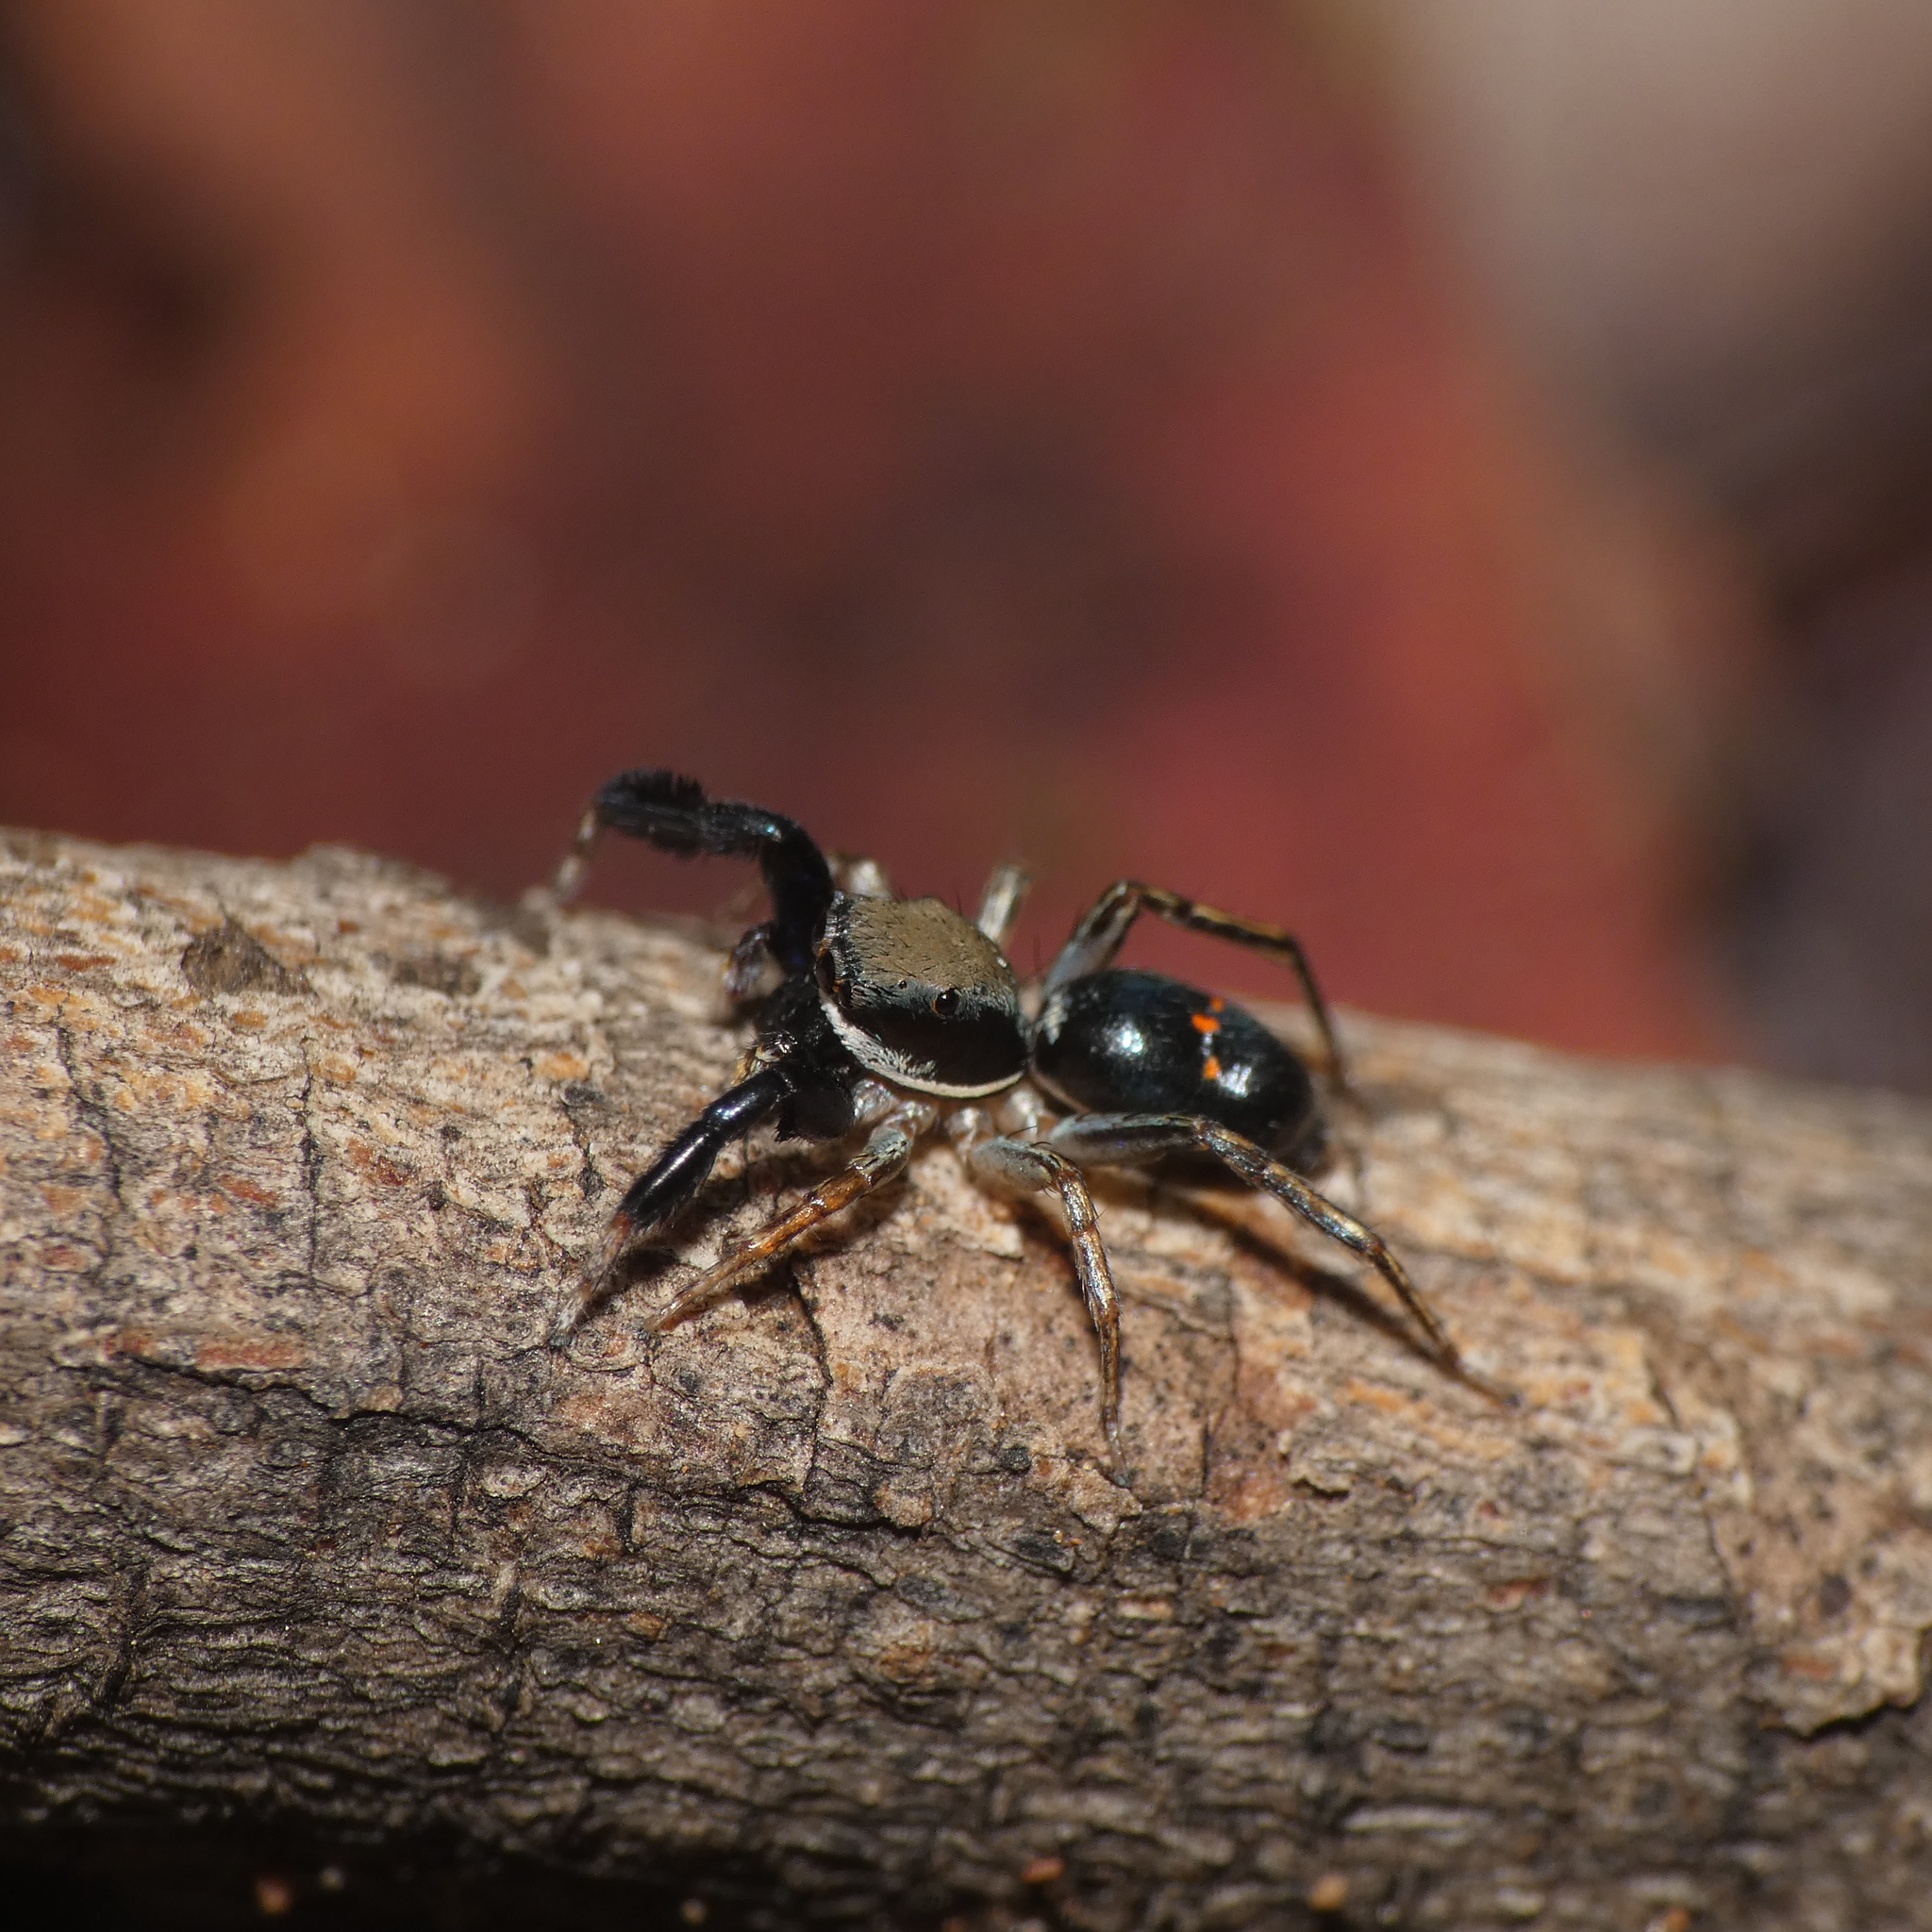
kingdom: Animalia
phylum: Arthropoda
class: Arachnida
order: Araneae
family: Salticidae
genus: Natta
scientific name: Natta horizontalis
